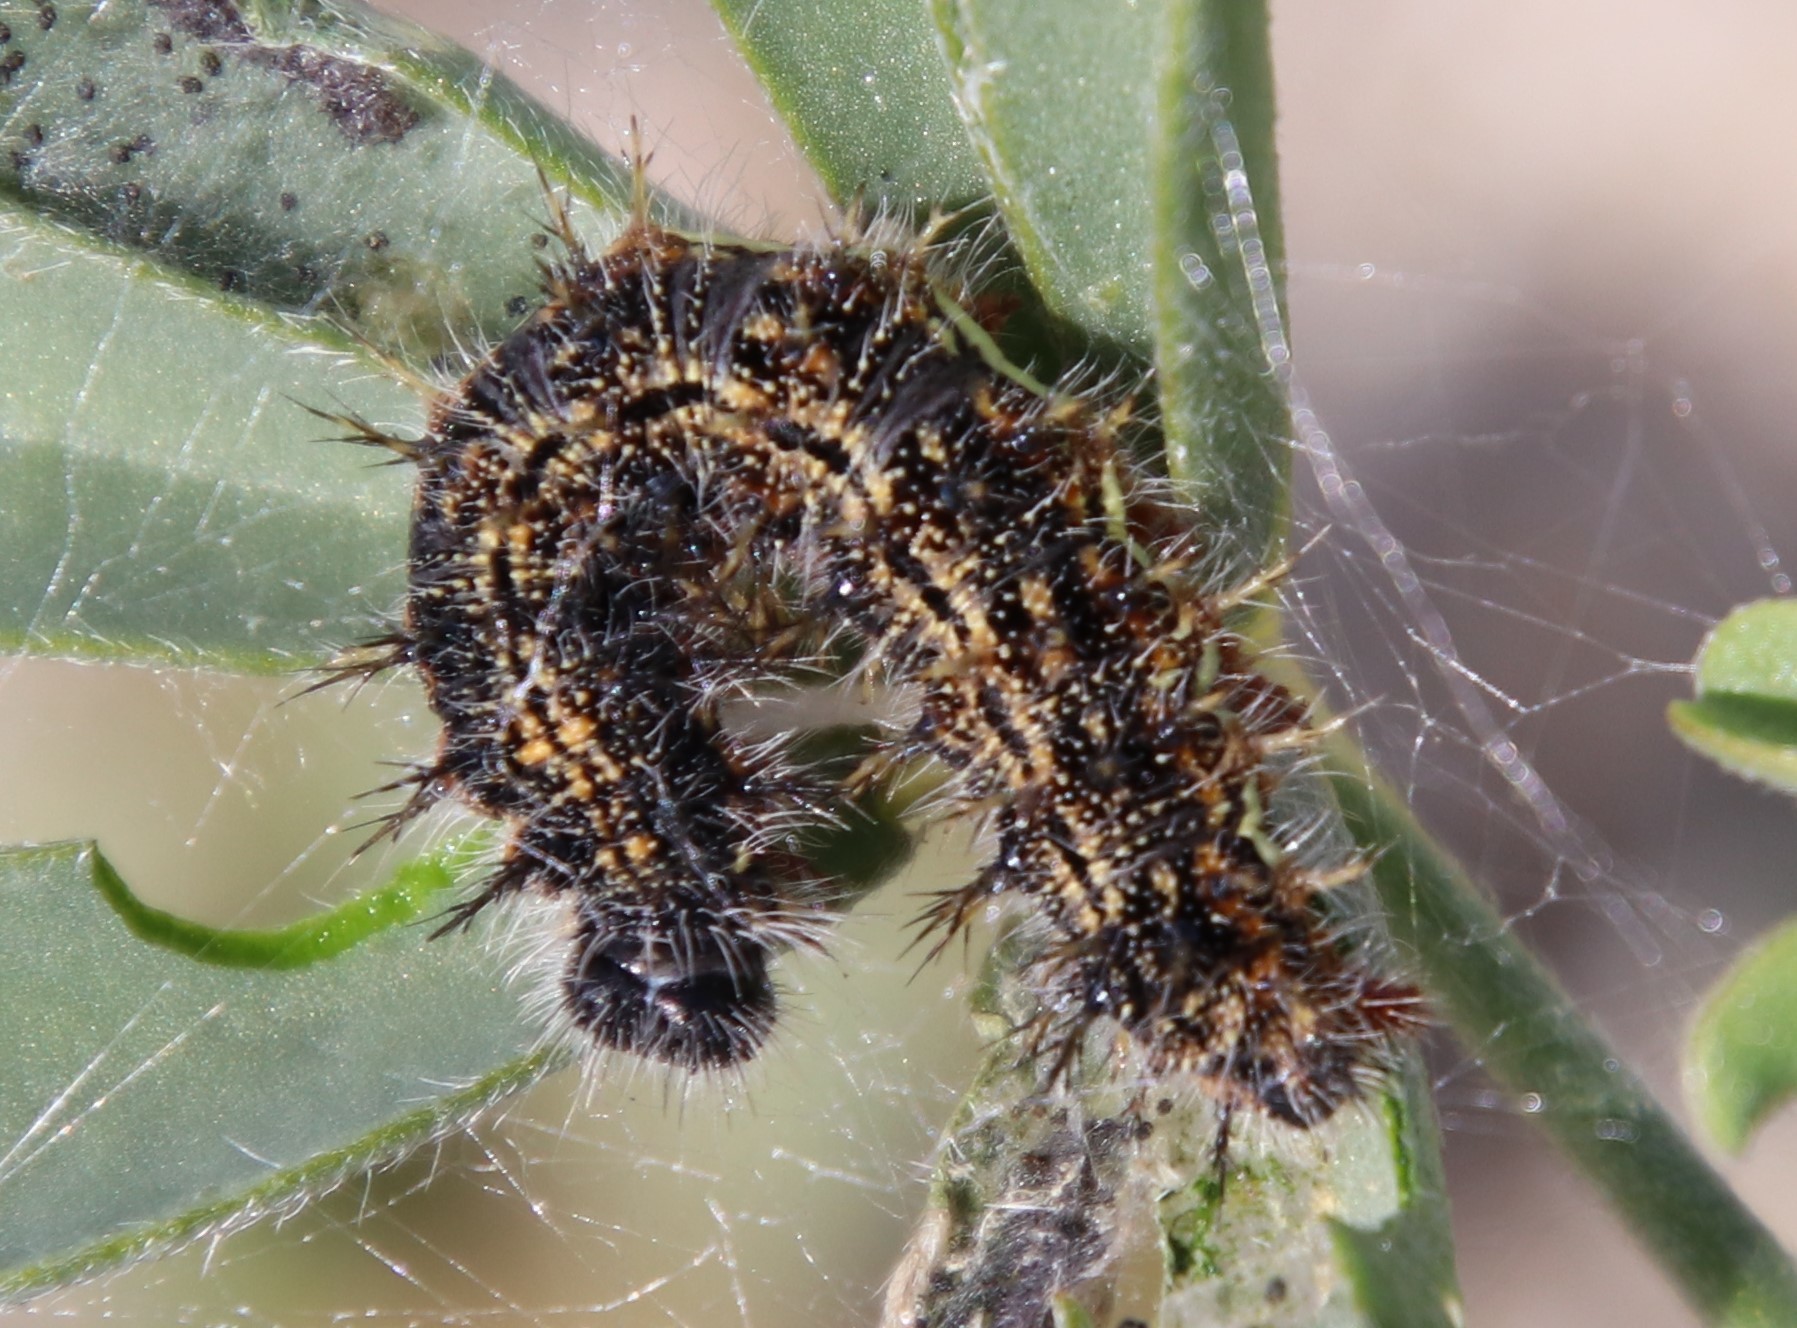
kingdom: Animalia
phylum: Arthropoda
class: Insecta
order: Lepidoptera
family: Nymphalidae
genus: Vanessa
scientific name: Vanessa cardui
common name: Painted lady
